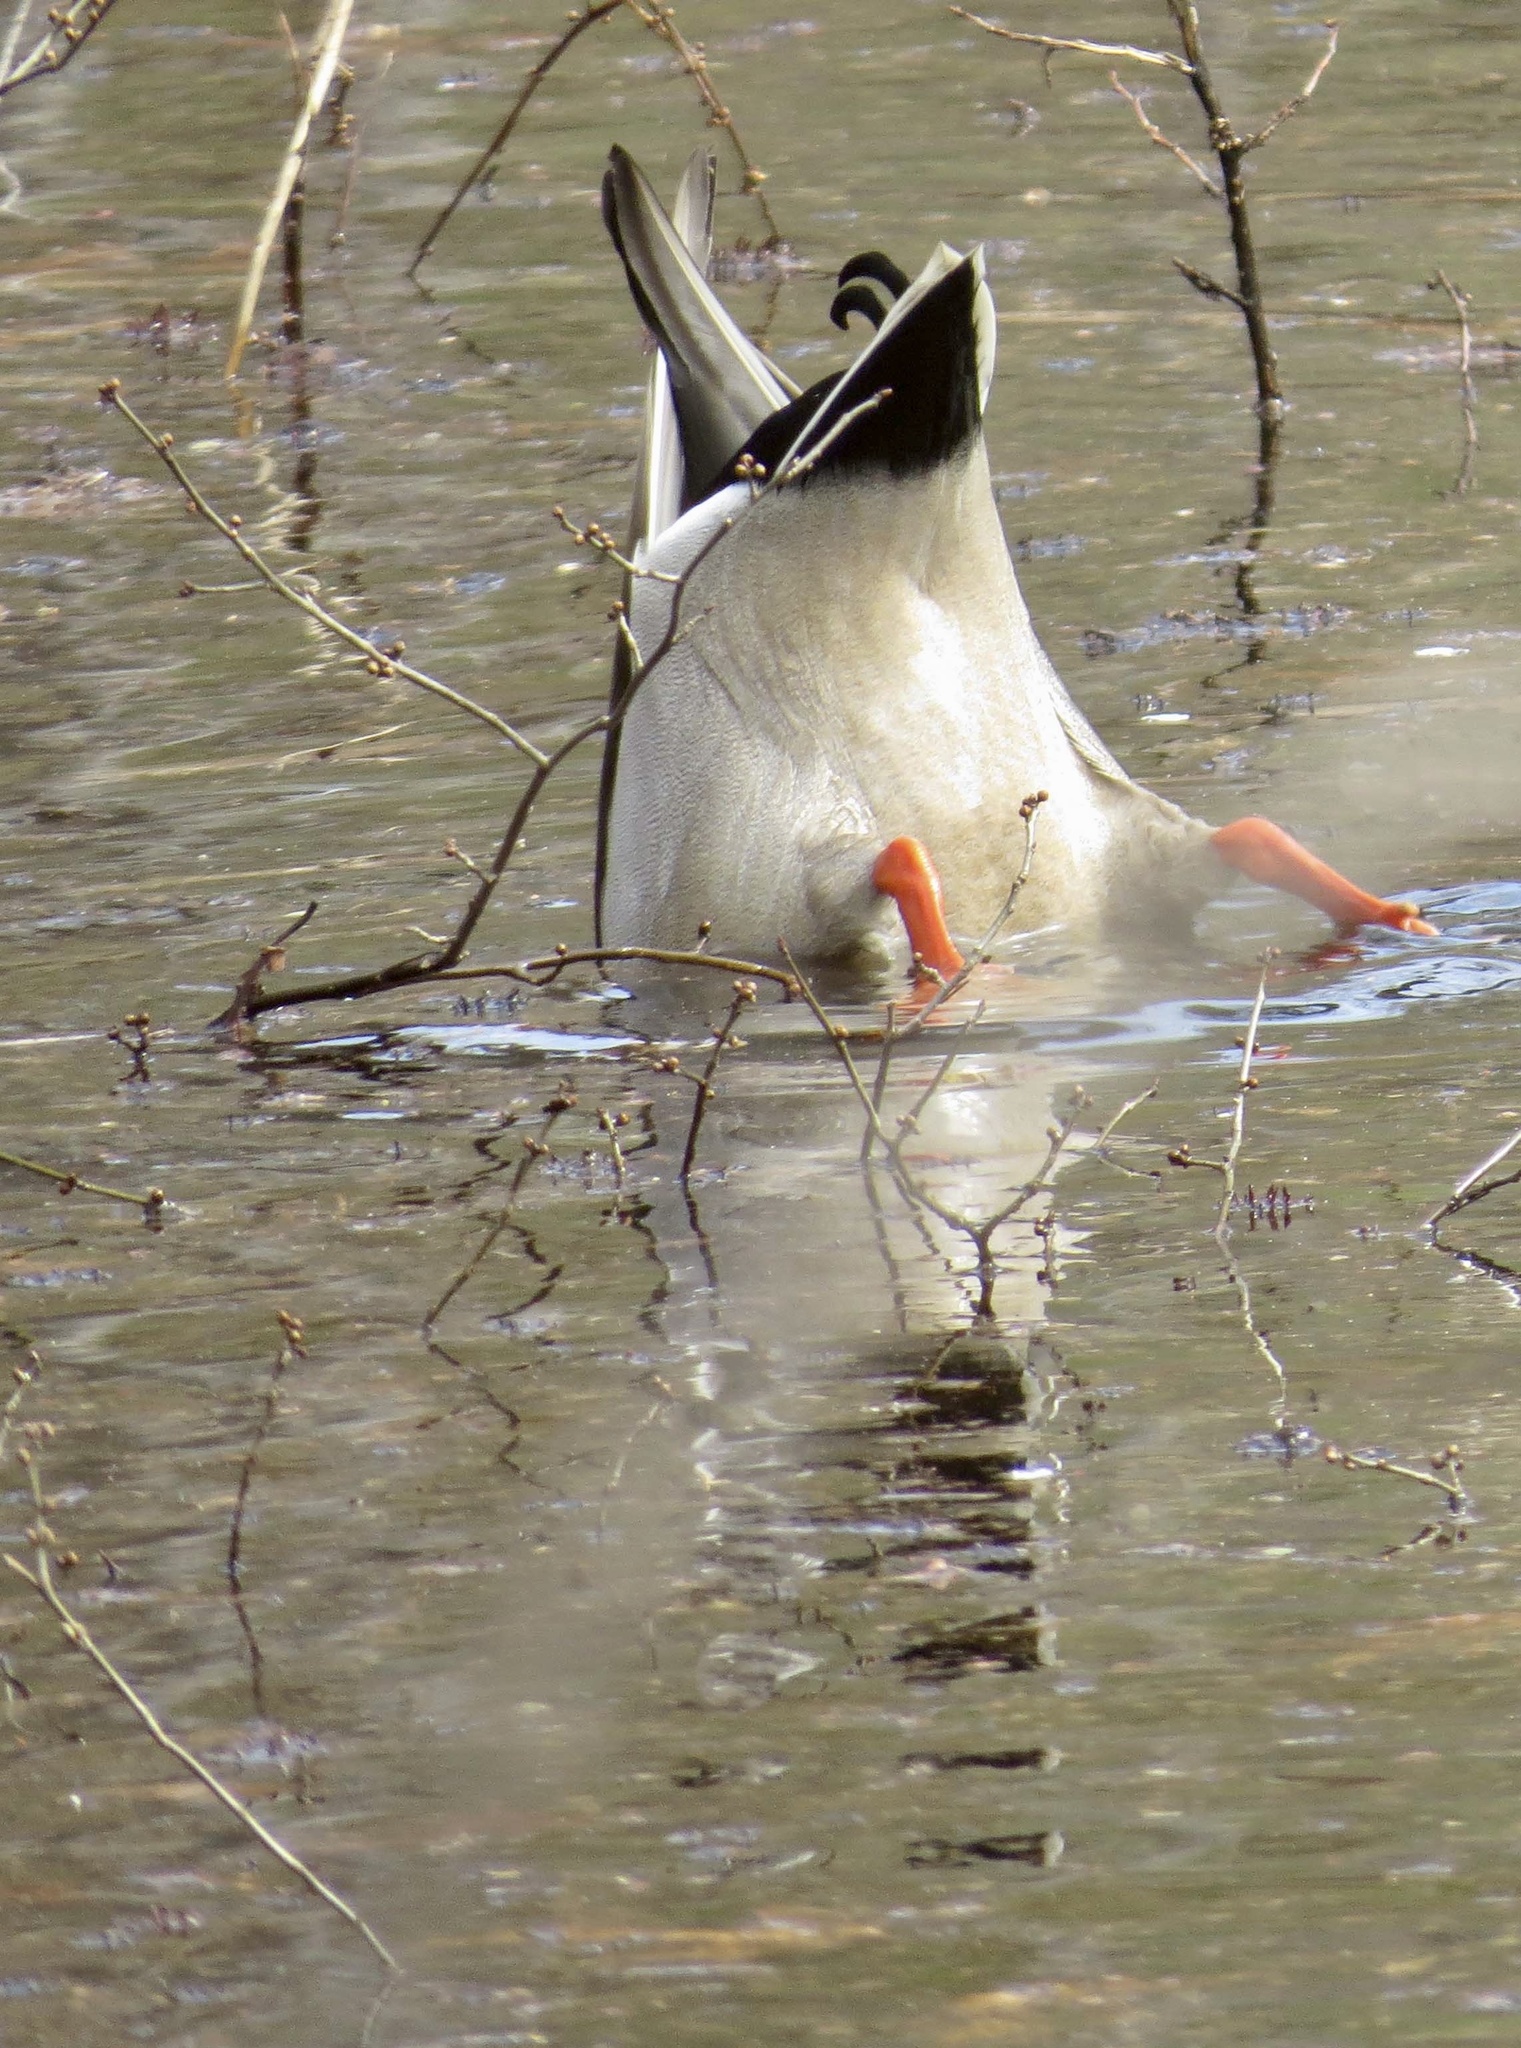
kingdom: Animalia
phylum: Chordata
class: Aves
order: Anseriformes
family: Anatidae
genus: Anas
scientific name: Anas platyrhynchos
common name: Mallard
